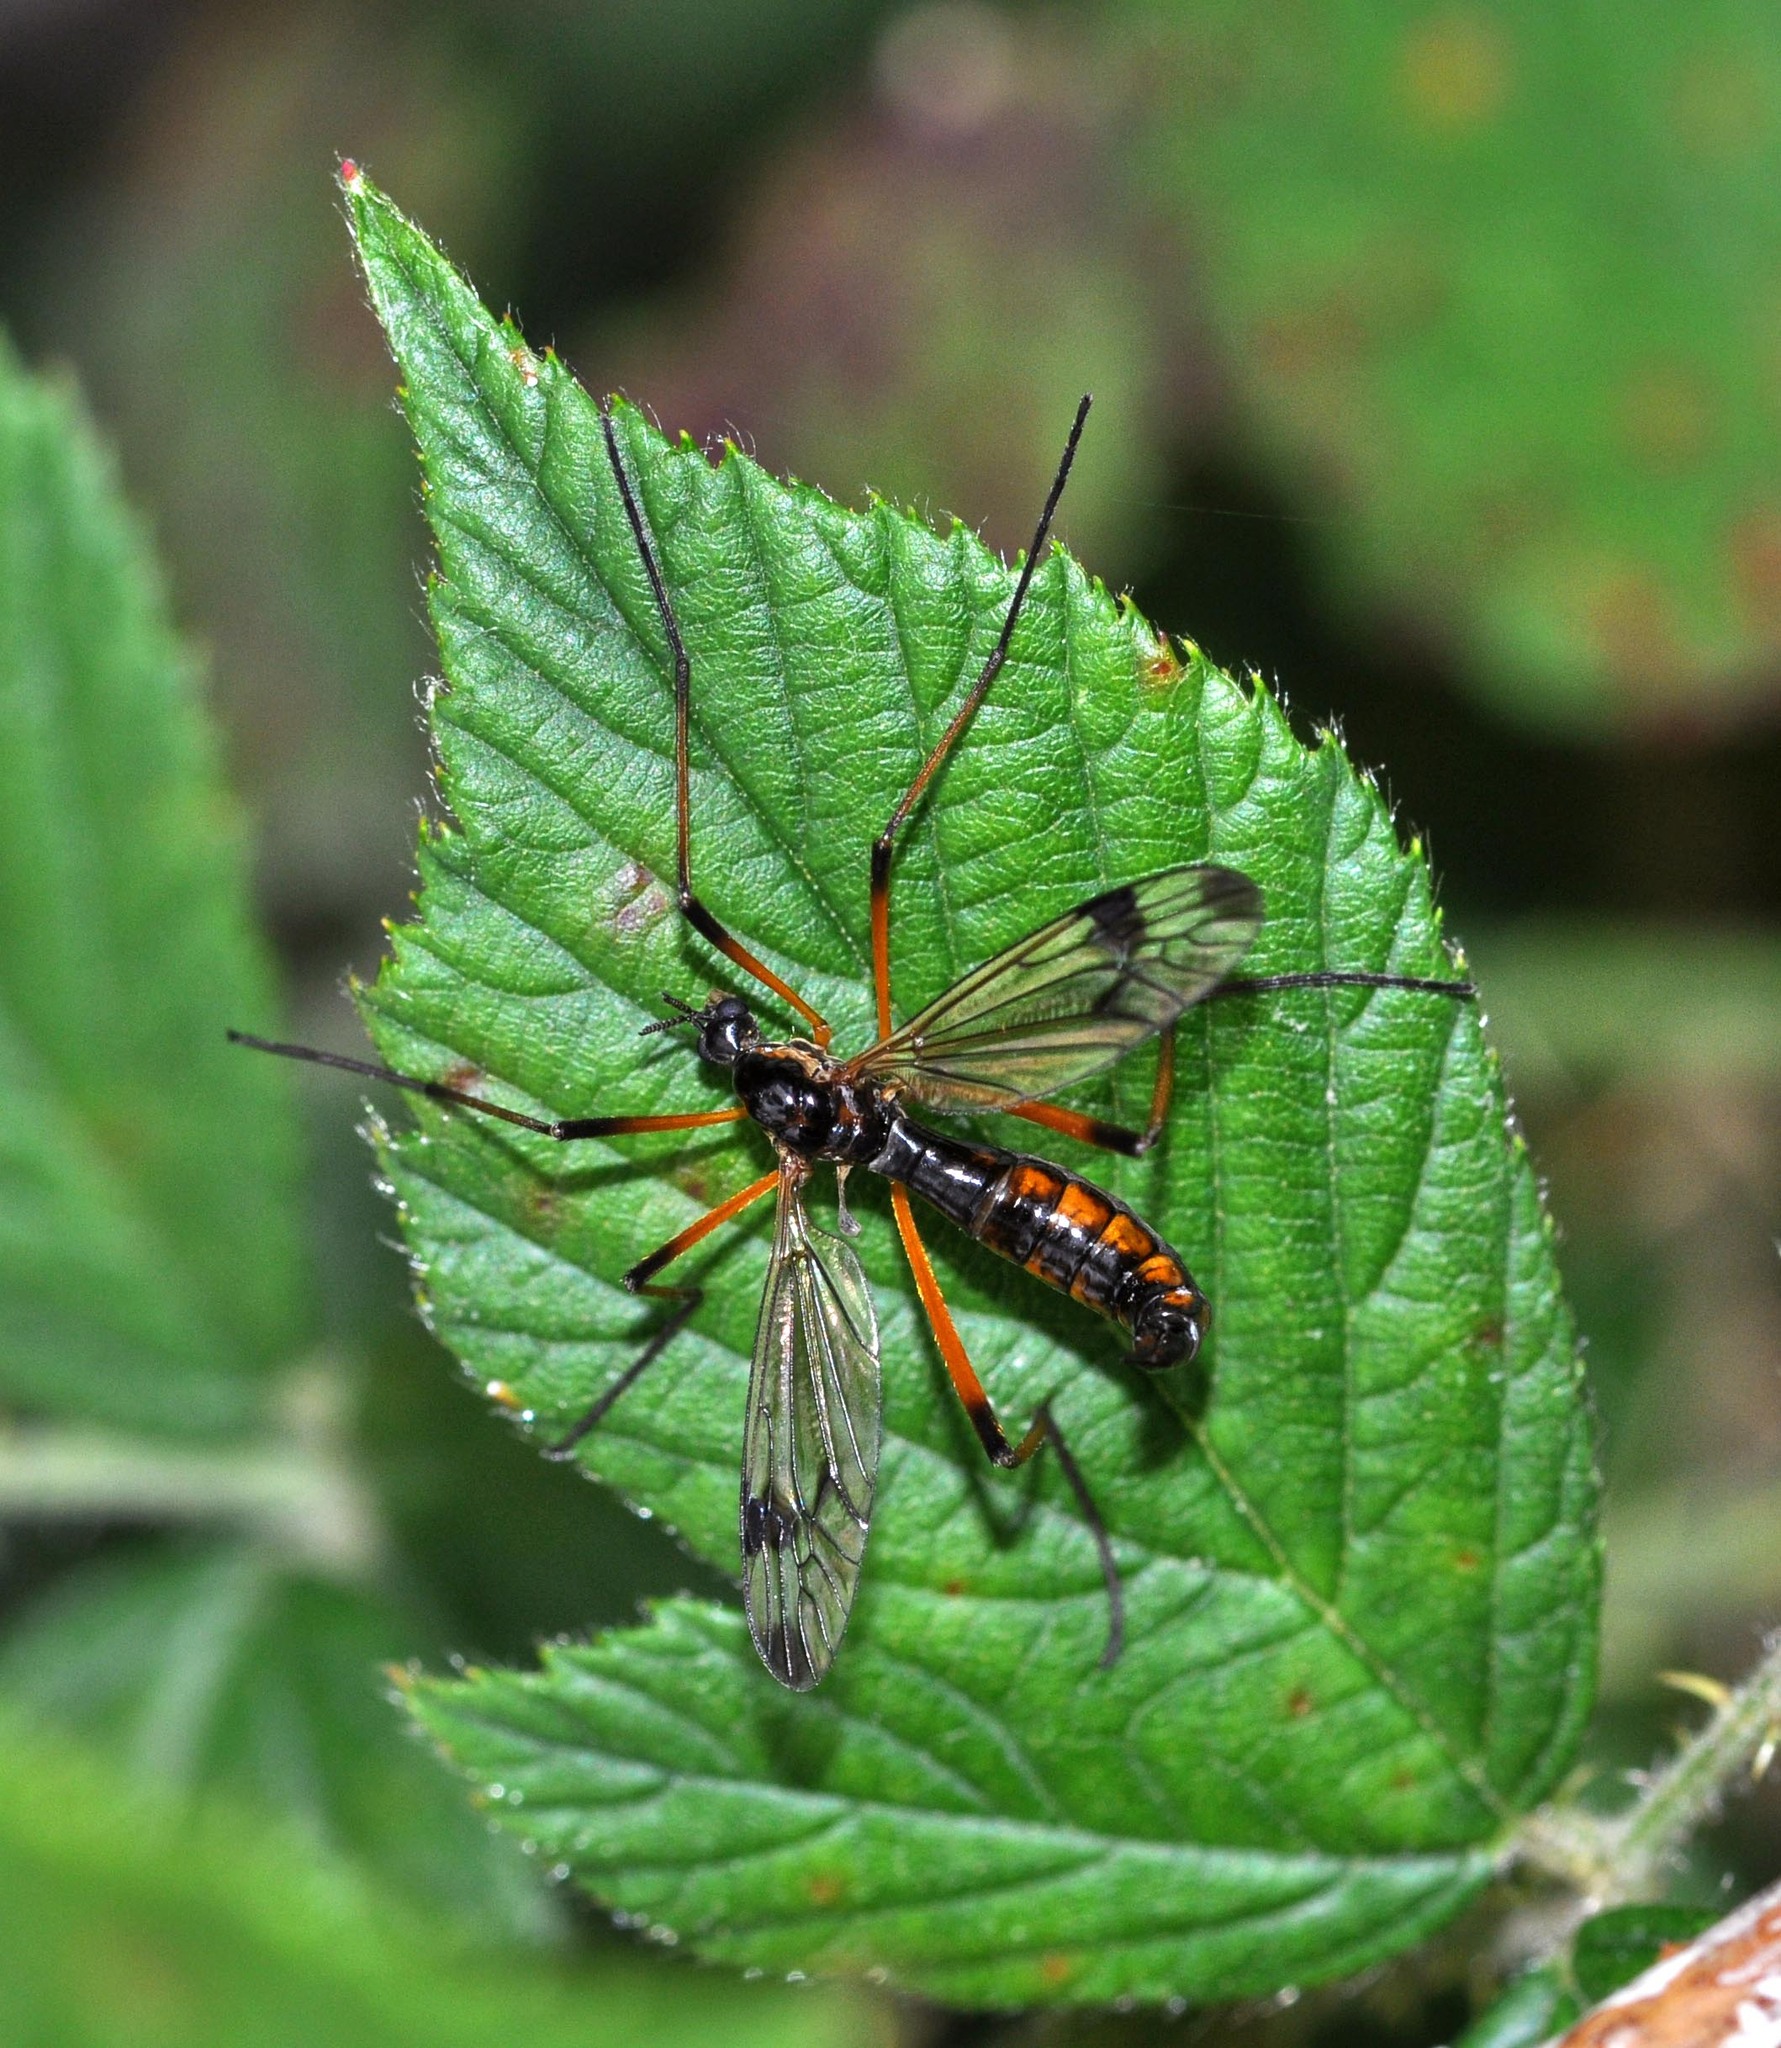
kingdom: Animalia
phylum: Arthropoda
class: Insecta
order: Diptera
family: Tipulidae
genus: Dictenidia
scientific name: Dictenidia bimaculata
